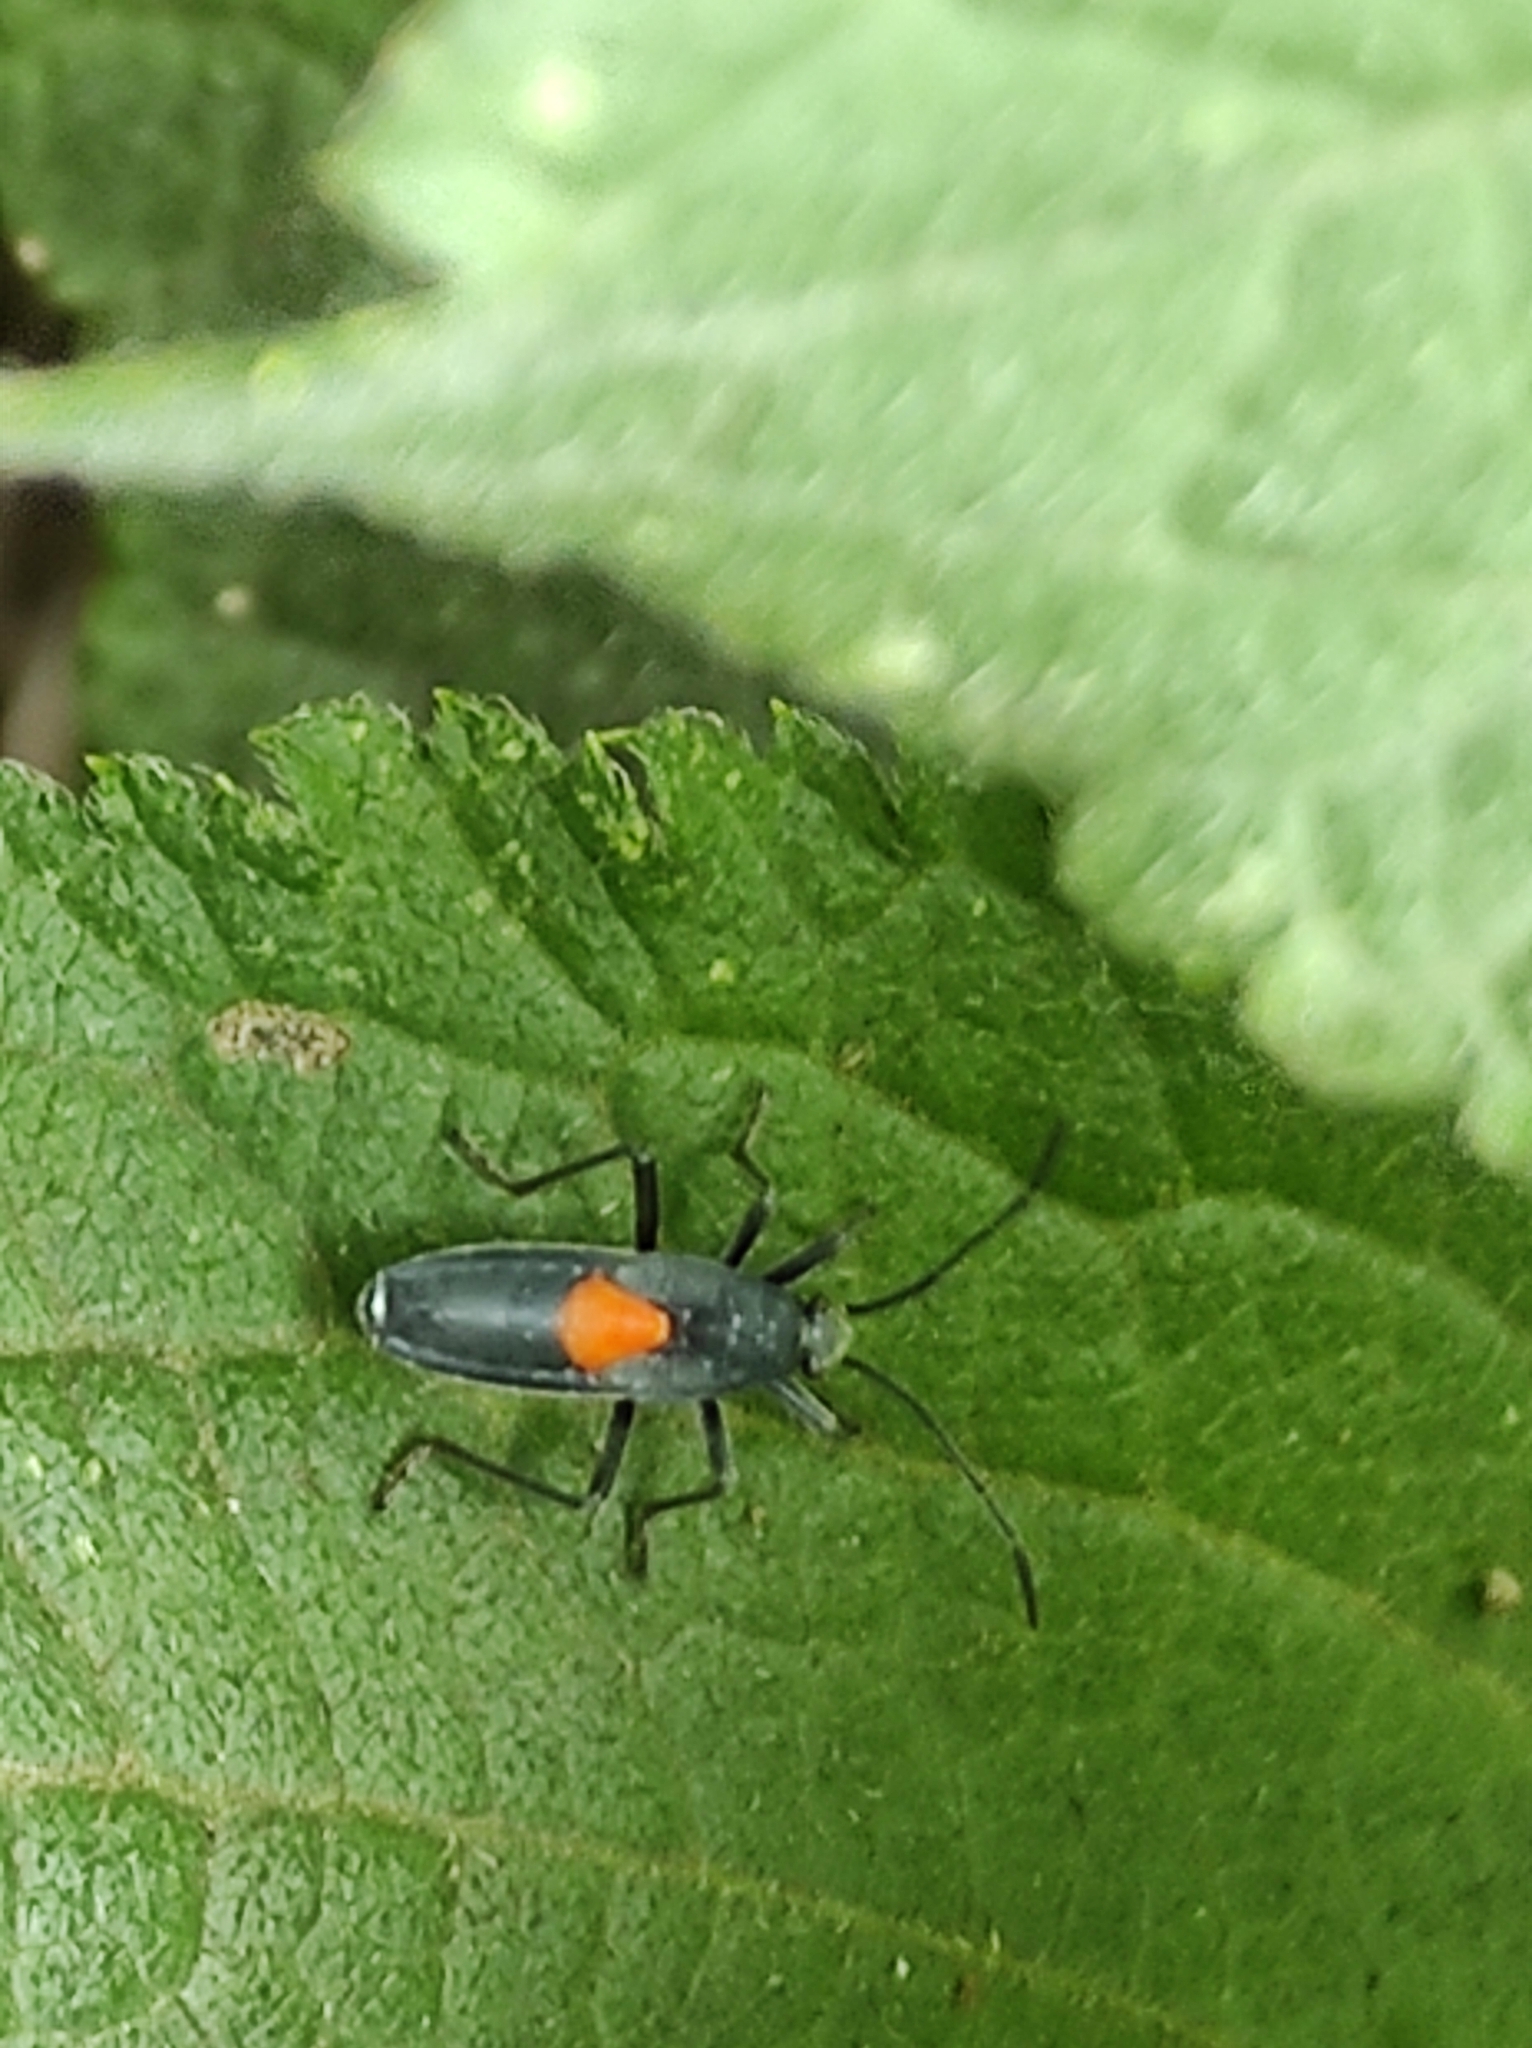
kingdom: Animalia
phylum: Arthropoda
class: Insecta
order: Hemiptera
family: Largidae
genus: Stenomacra
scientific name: Stenomacra marginella
